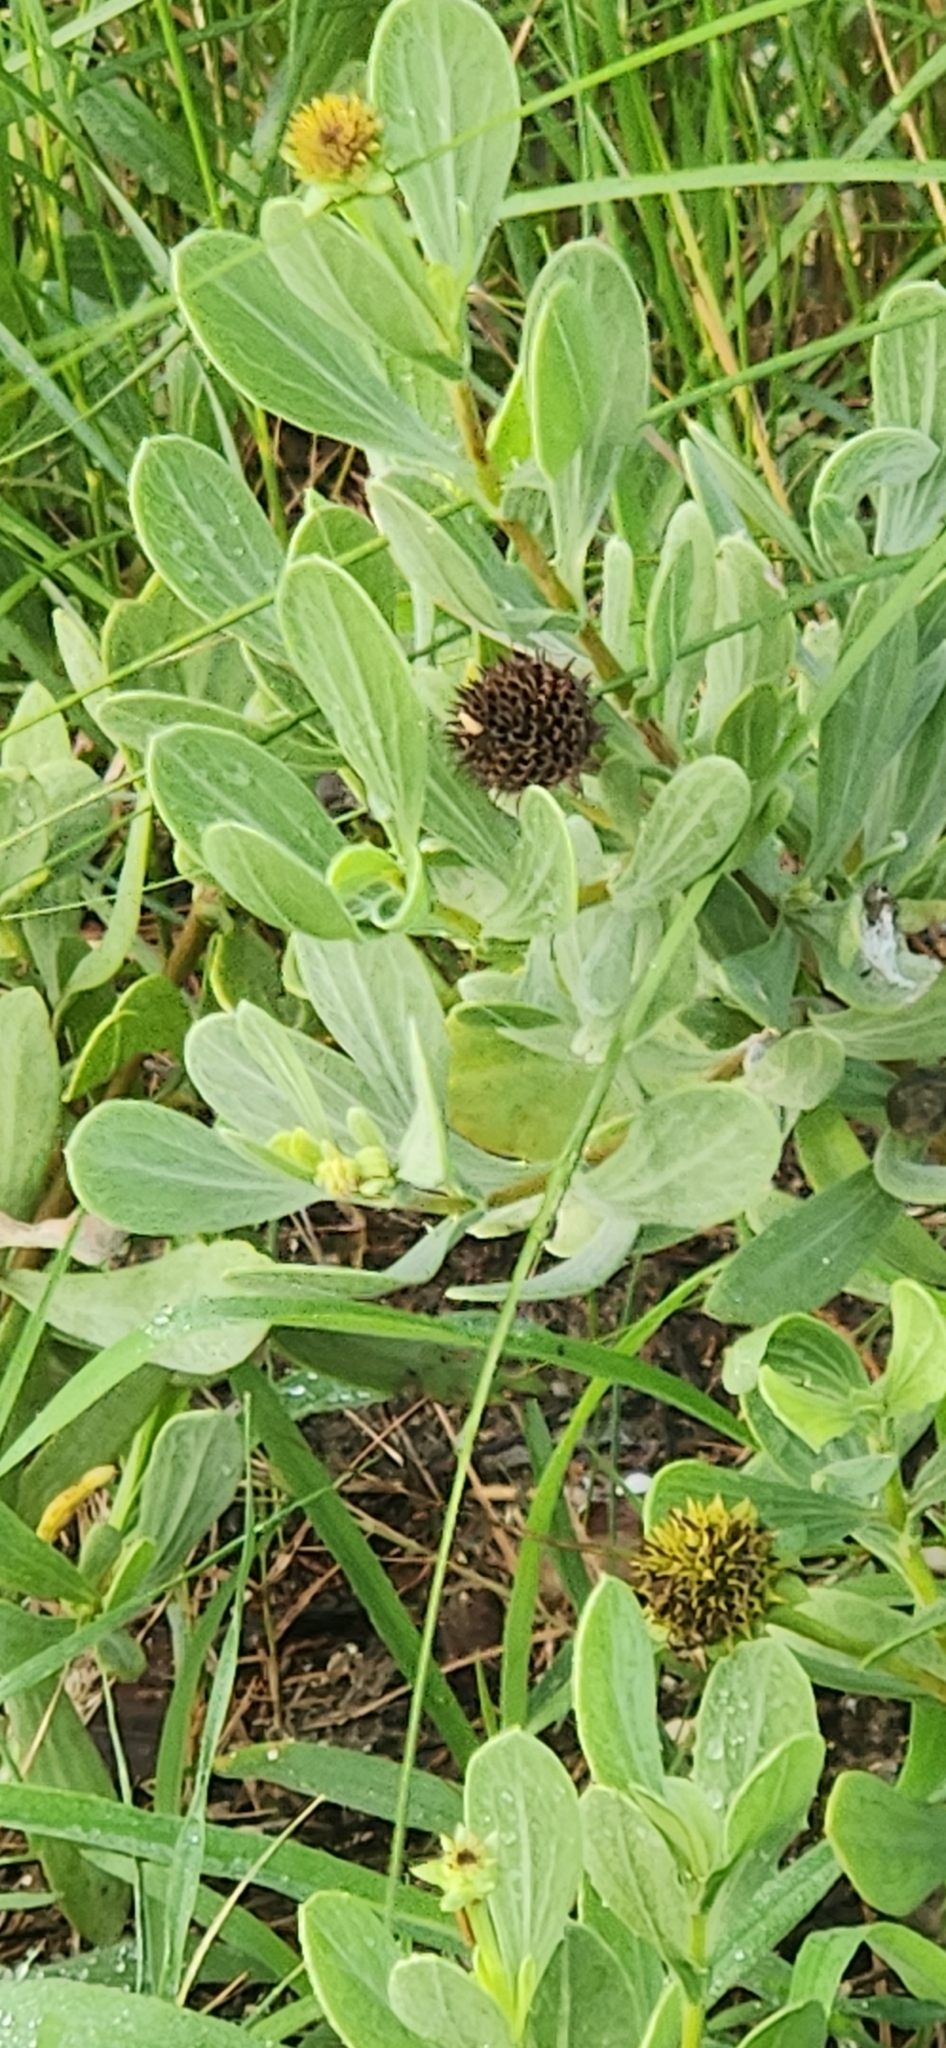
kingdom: Plantae
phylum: Tracheophyta
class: Magnoliopsida
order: Asterales
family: Asteraceae
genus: Borrichia
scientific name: Borrichia frutescens
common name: Sea oxeye
